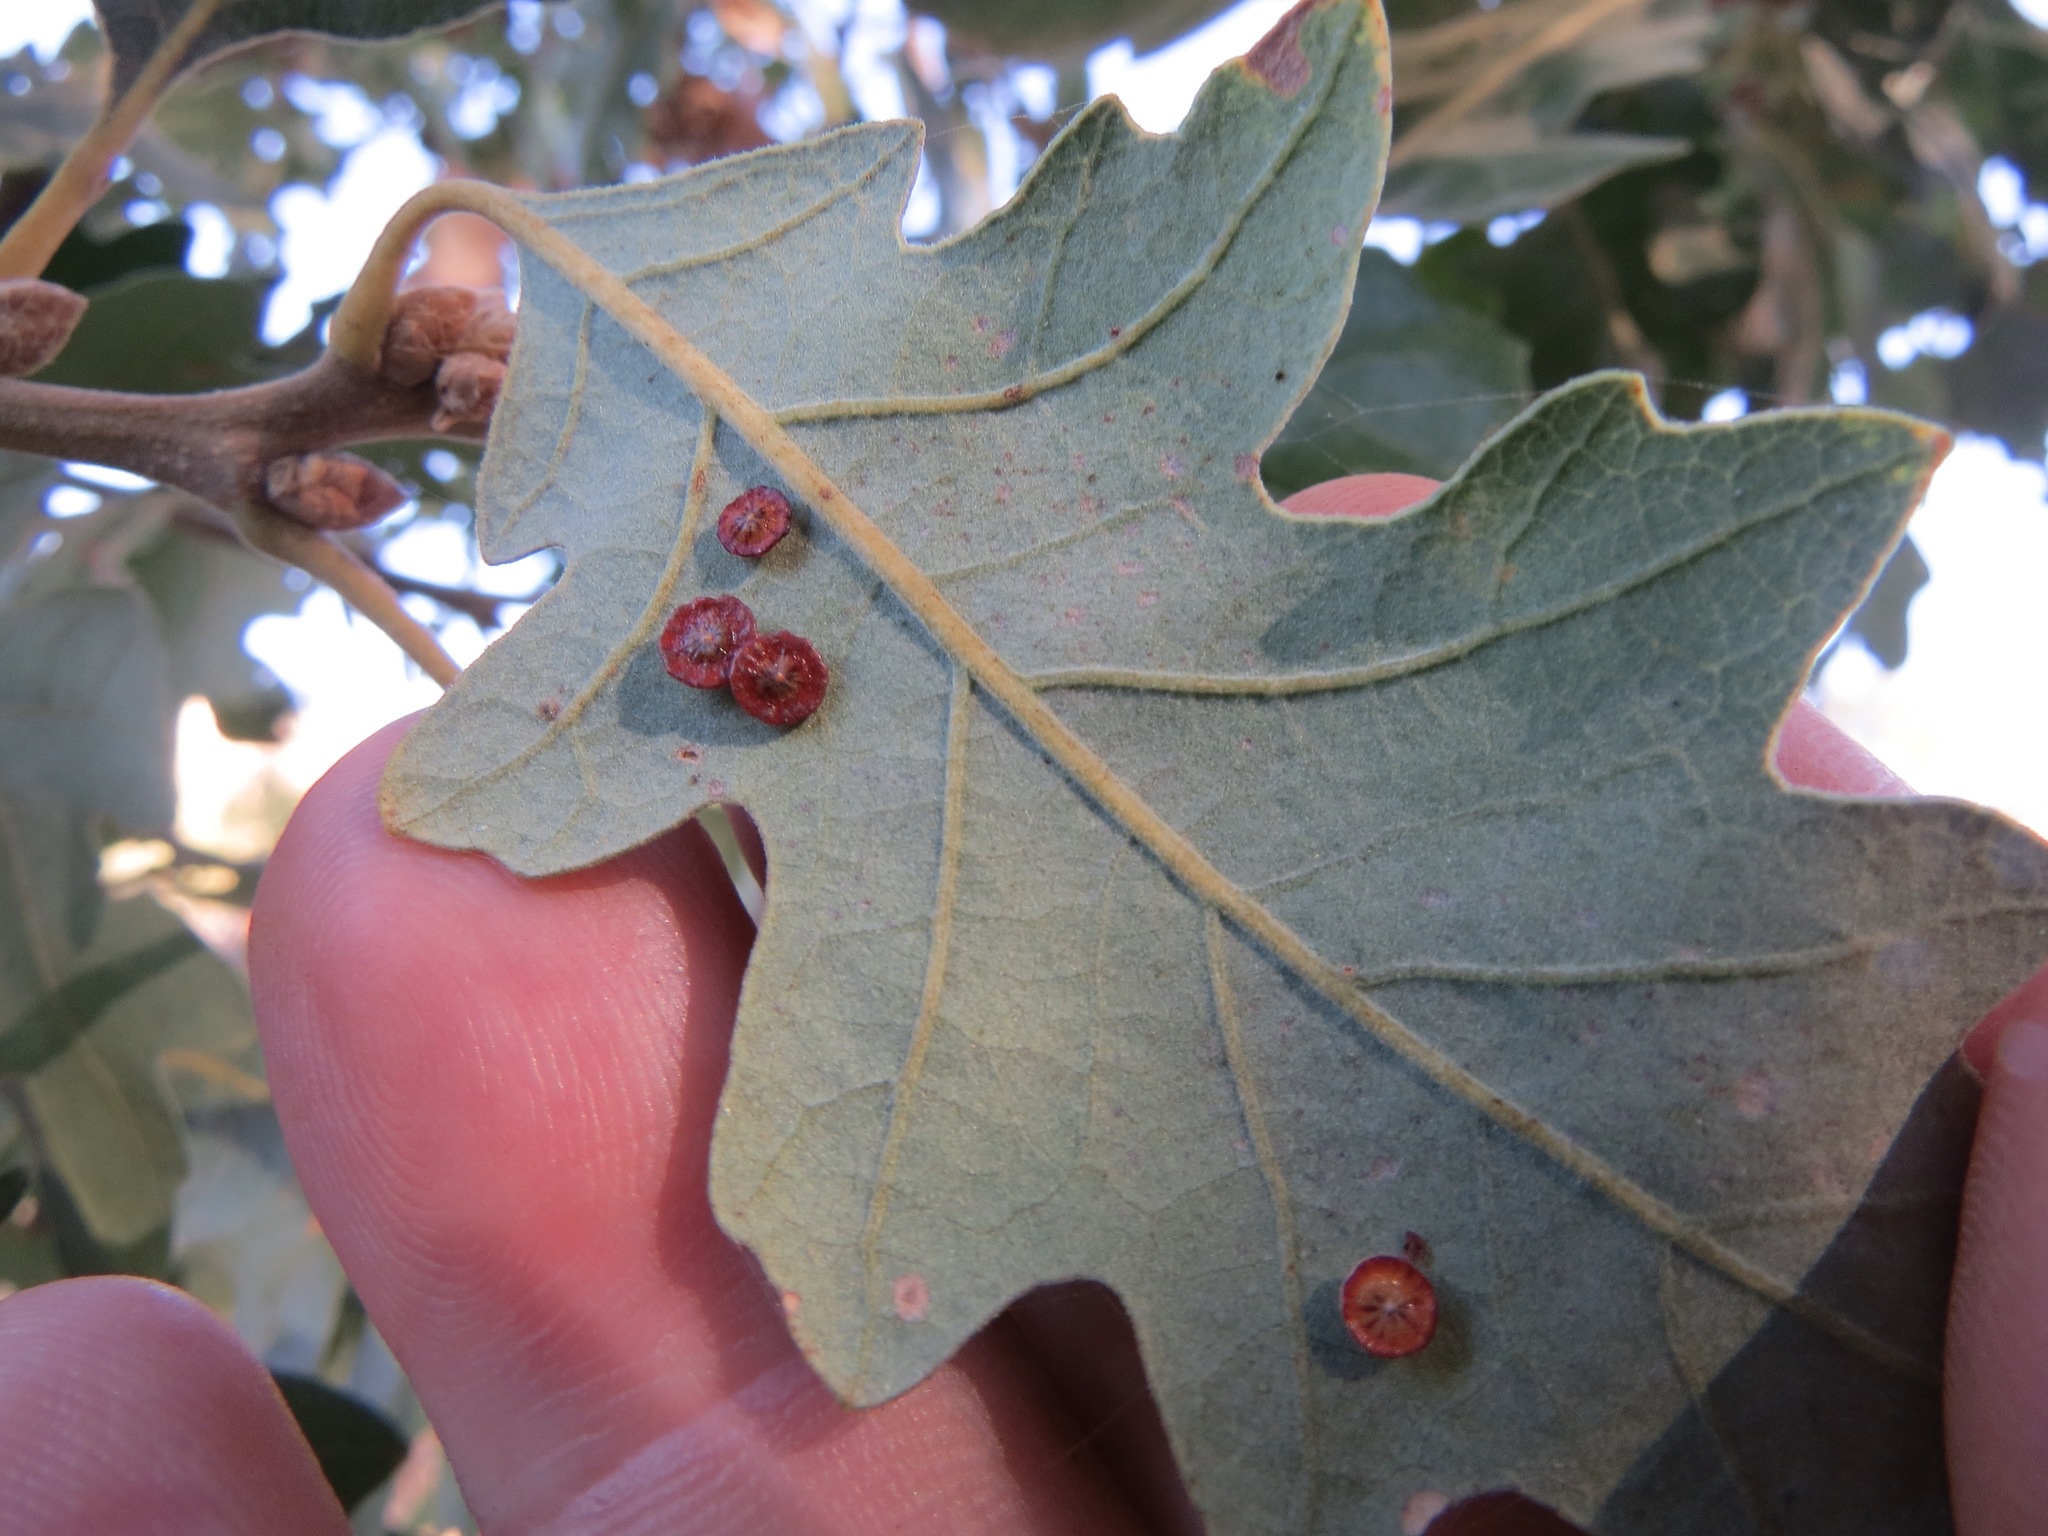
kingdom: Animalia
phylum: Arthropoda
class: Insecta
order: Hymenoptera
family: Cynipidae
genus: Andricus
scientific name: Andricus
